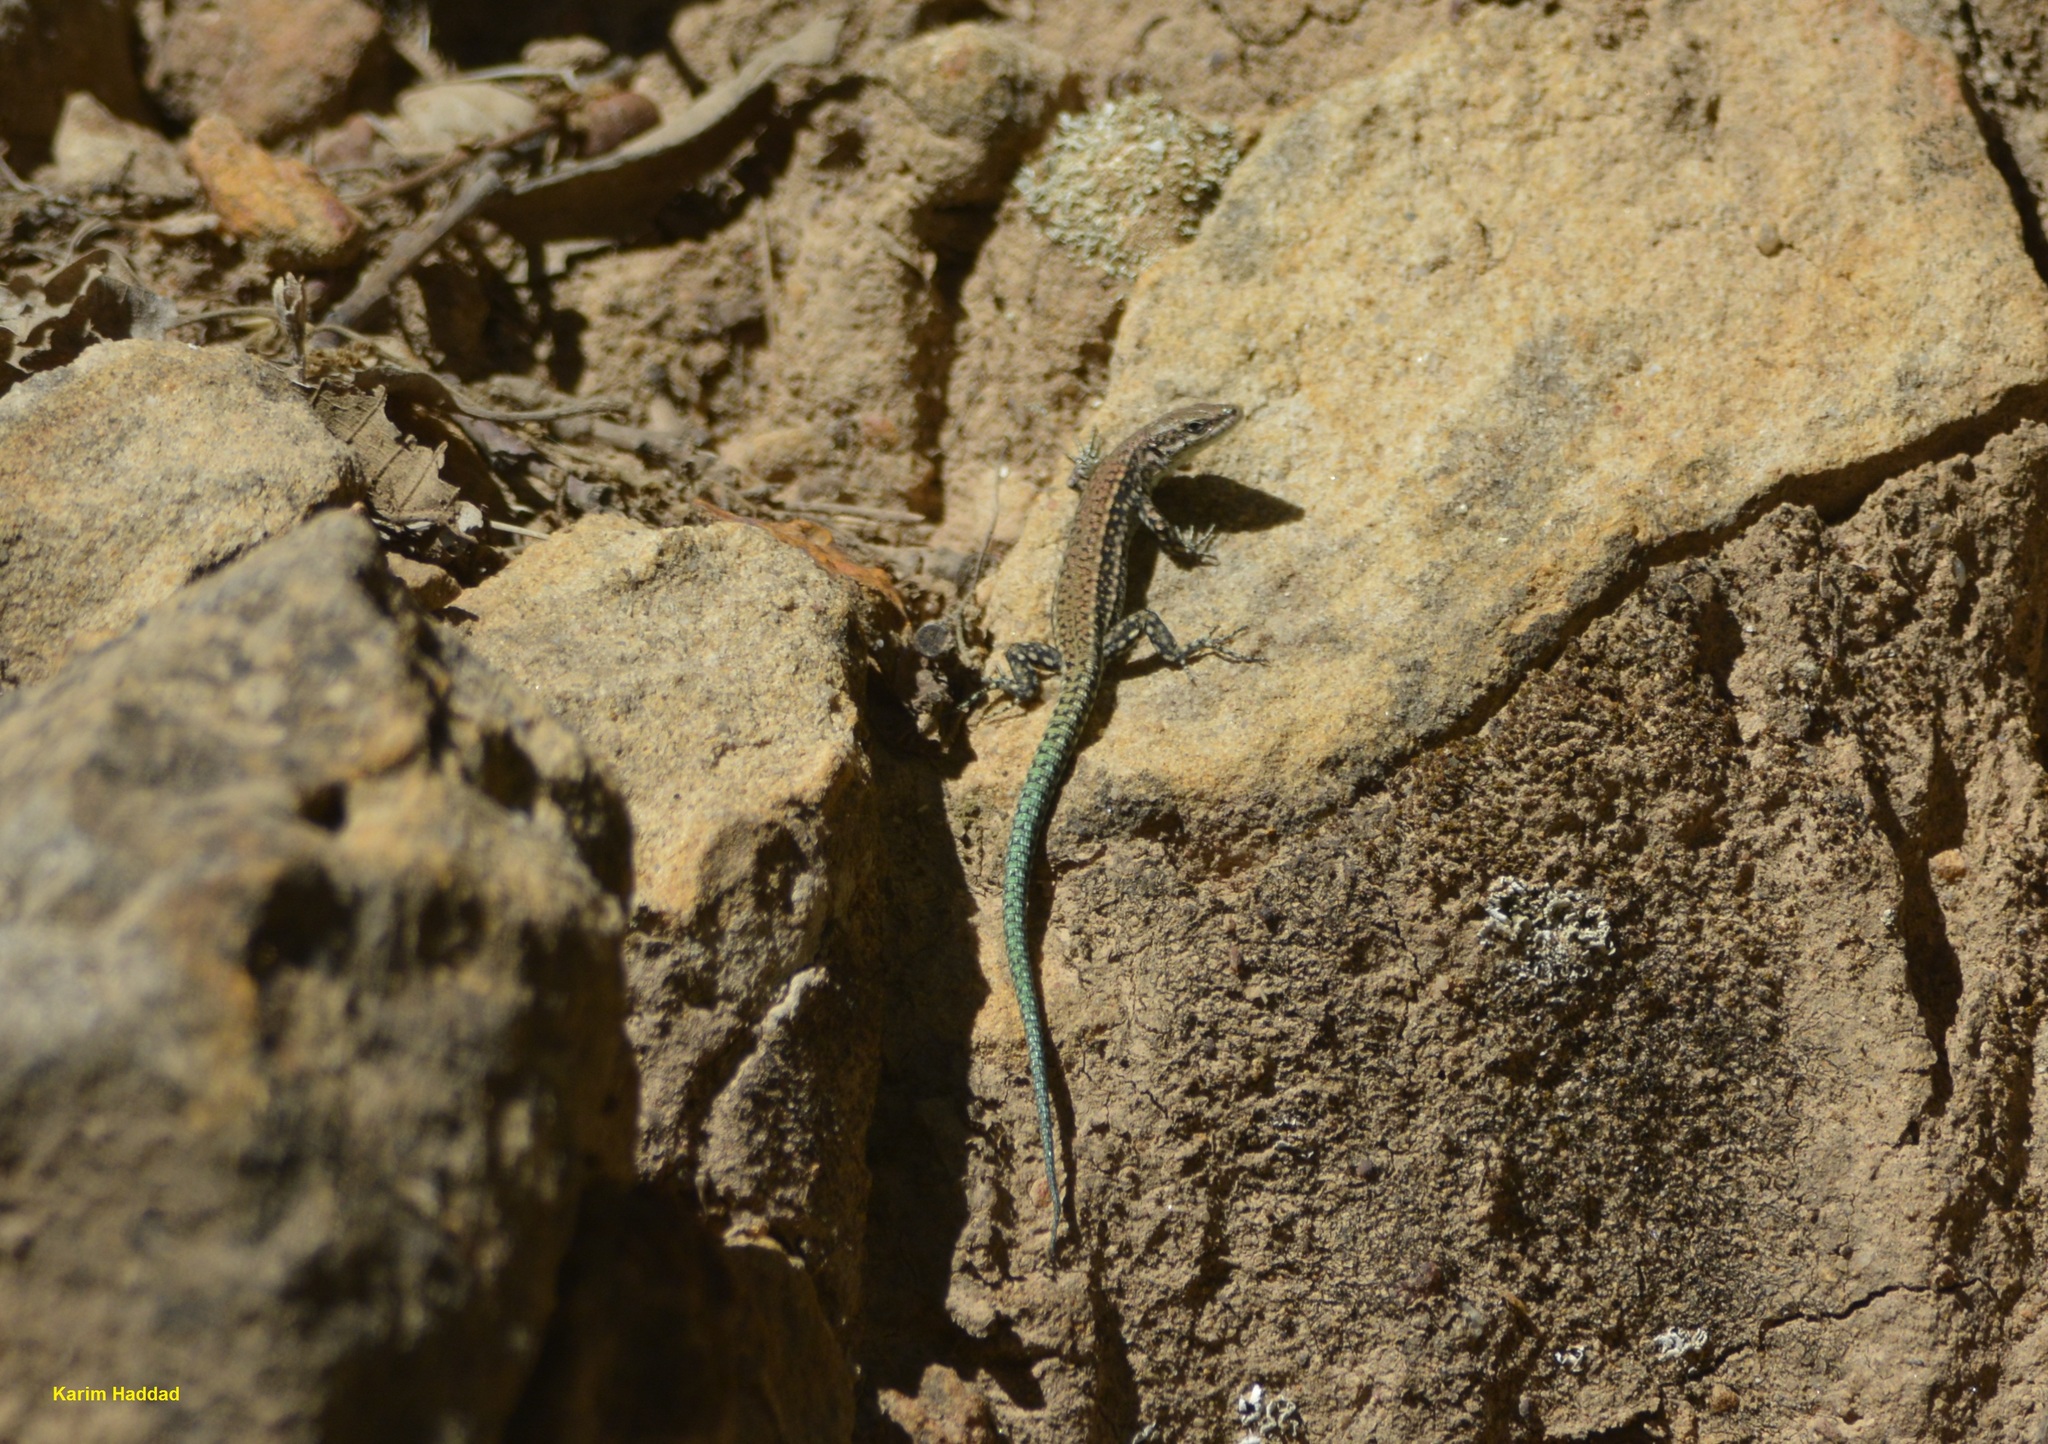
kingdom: Animalia
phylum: Chordata
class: Squamata
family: Lacertidae
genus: Podarcis
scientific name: Podarcis vaucheri
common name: Vaucher's wall lizard
